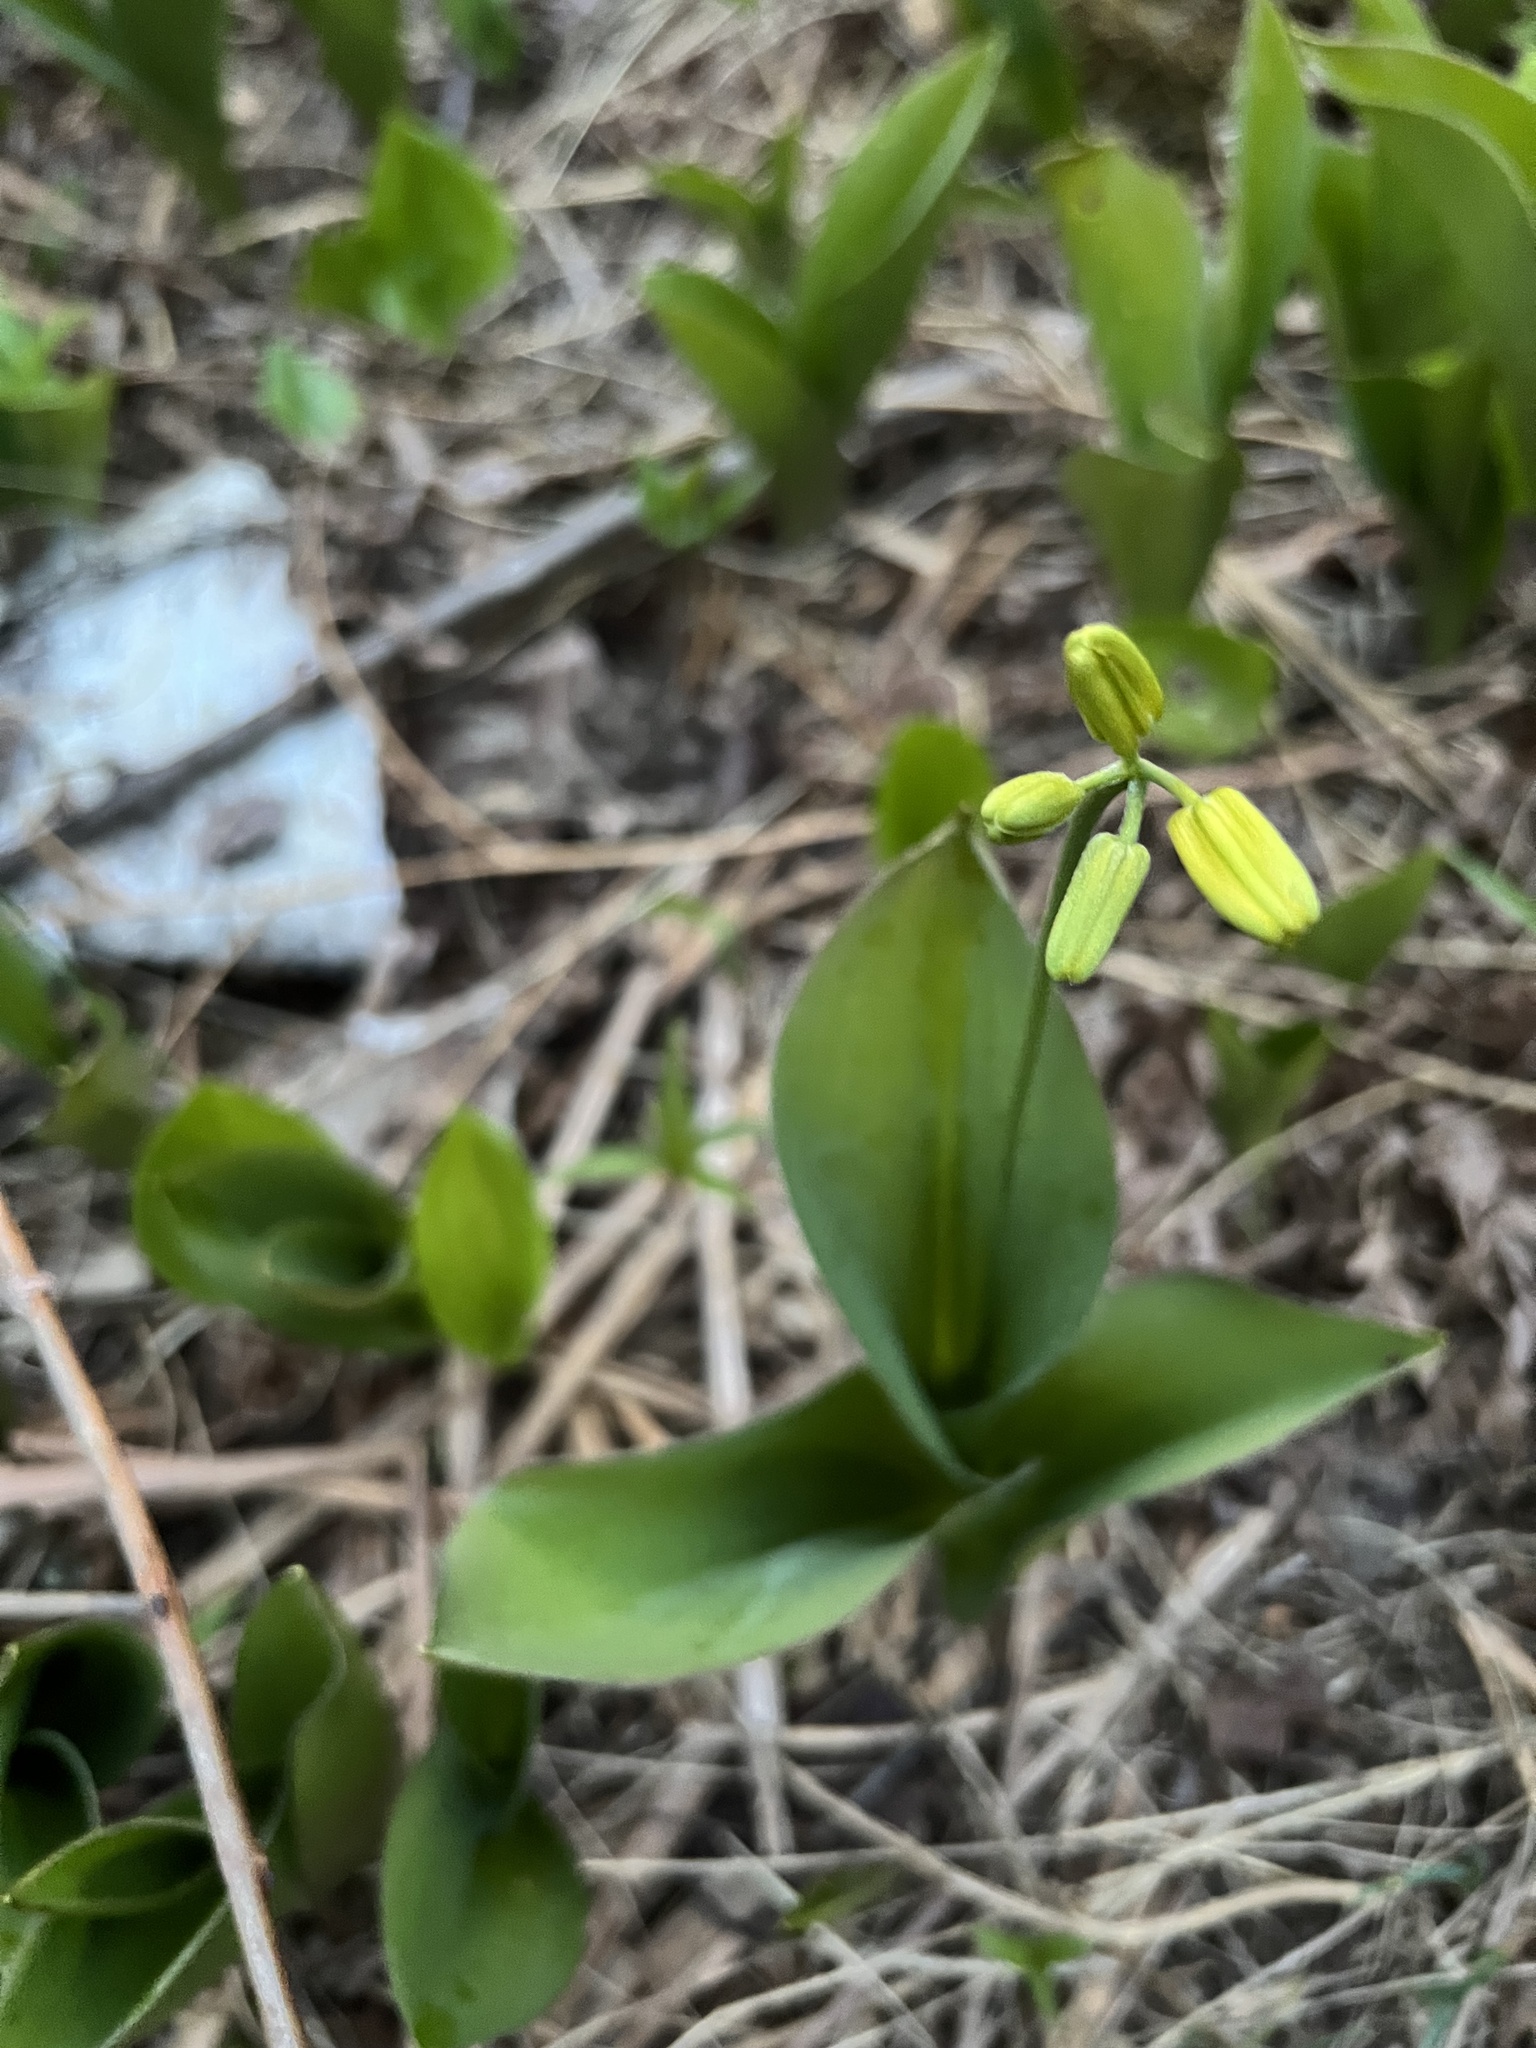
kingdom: Plantae
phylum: Tracheophyta
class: Liliopsida
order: Liliales
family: Liliaceae
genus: Clintonia
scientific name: Clintonia borealis
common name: Yellow clintonia
